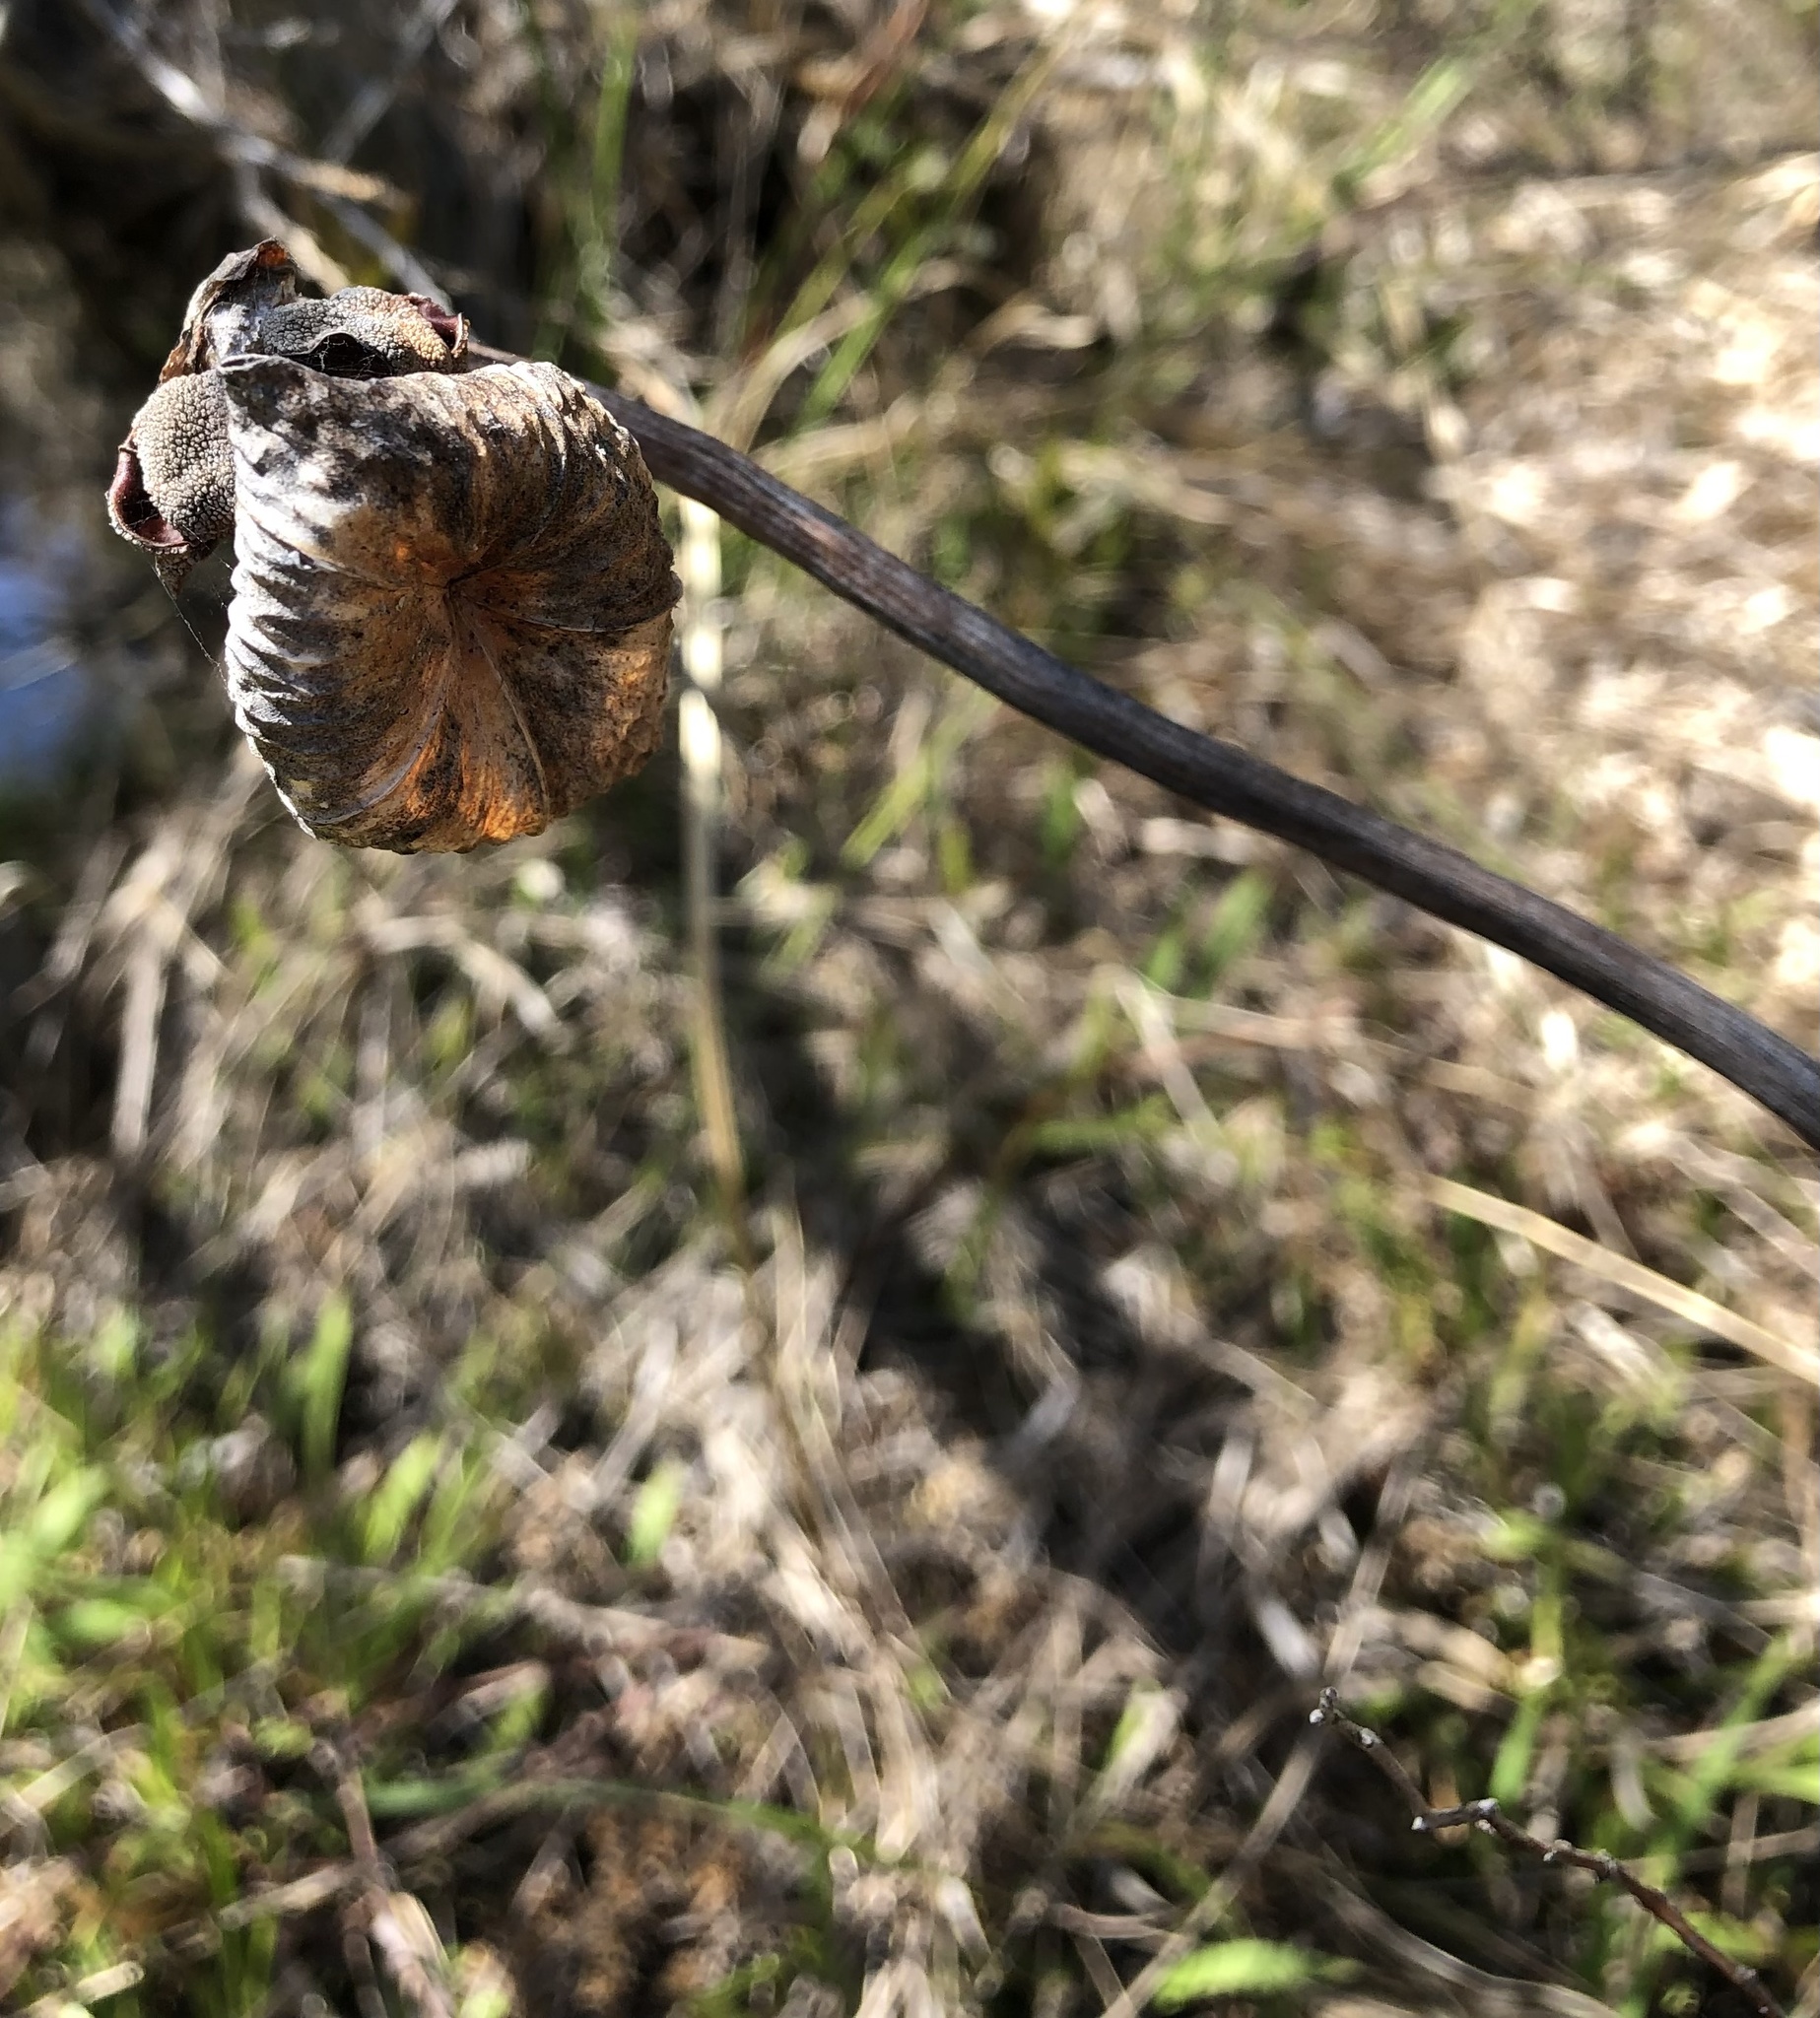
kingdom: Plantae
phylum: Tracheophyta
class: Magnoliopsida
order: Ericales
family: Sarraceniaceae
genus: Sarracenia
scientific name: Sarracenia purpurea
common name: Pitcherplant
